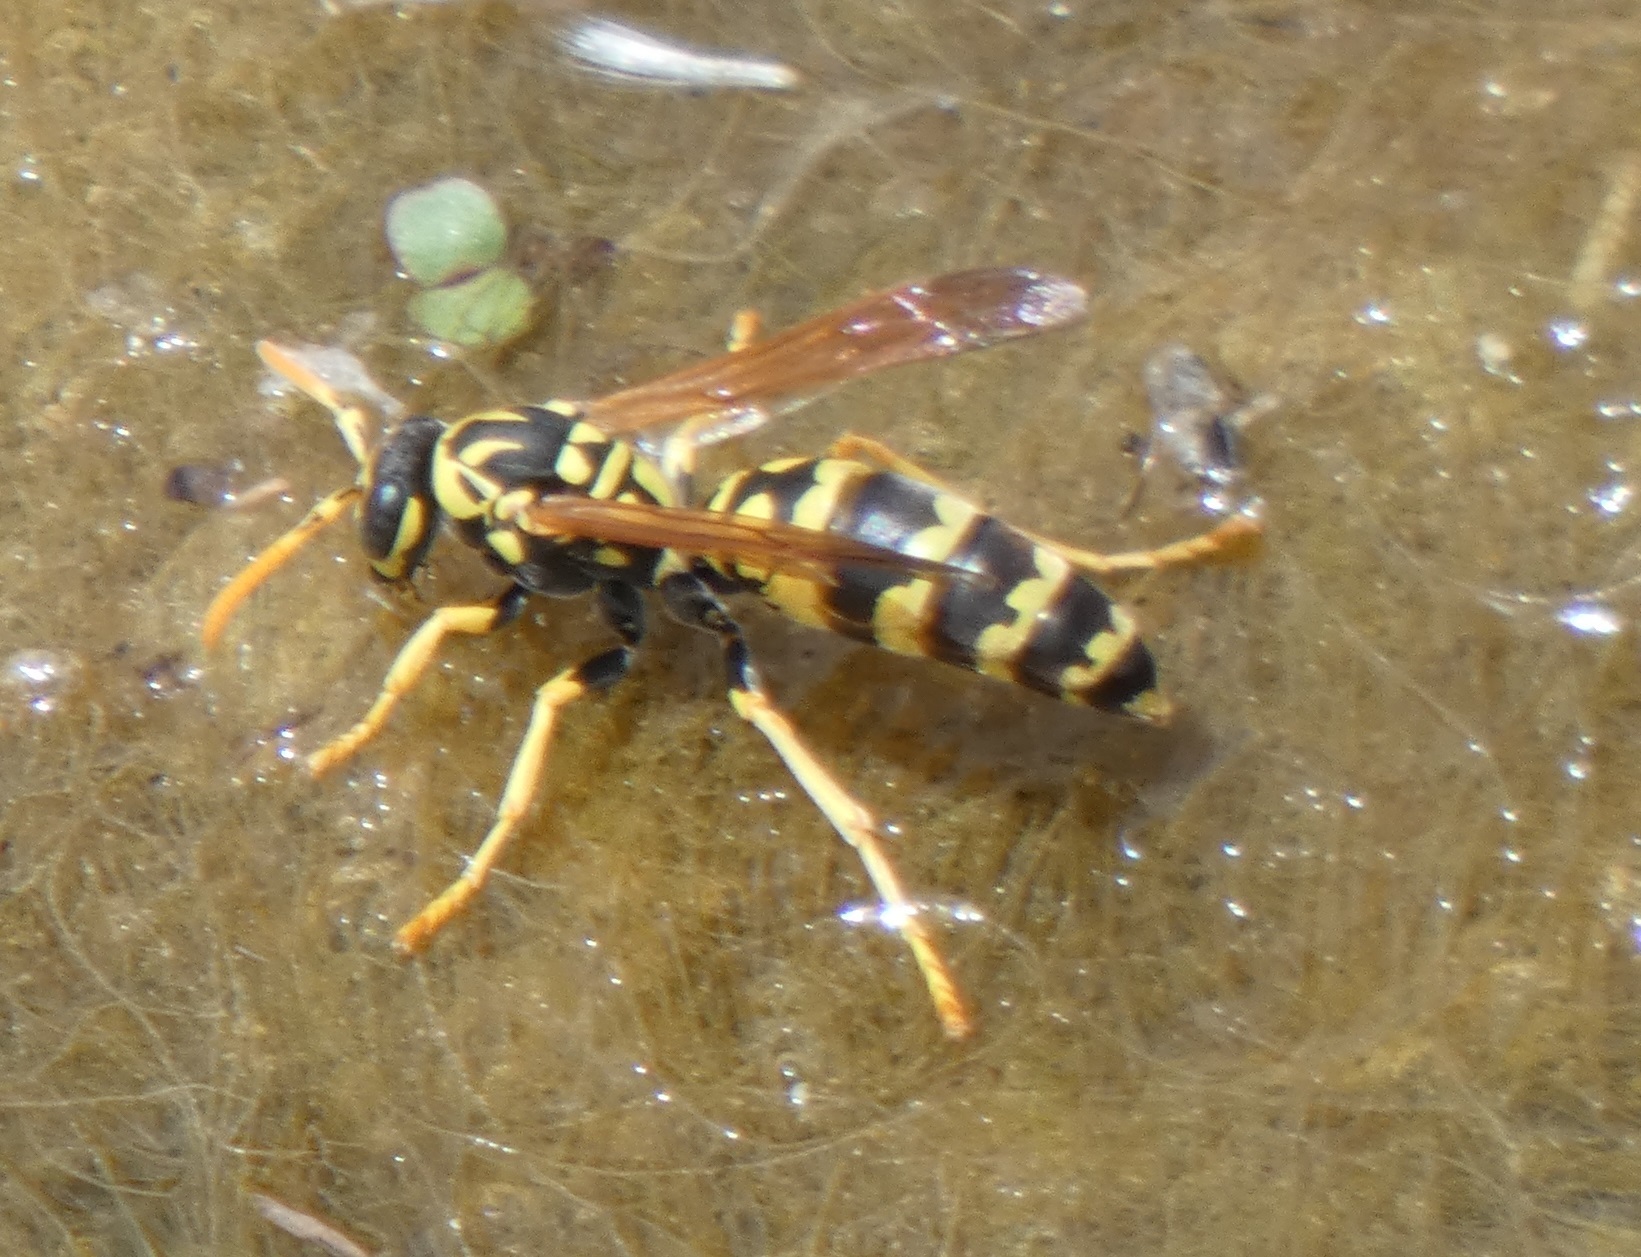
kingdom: Animalia
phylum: Arthropoda
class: Insecta
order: Hymenoptera
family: Eumenidae
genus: Polistes
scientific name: Polistes dominula
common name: Paper wasp
